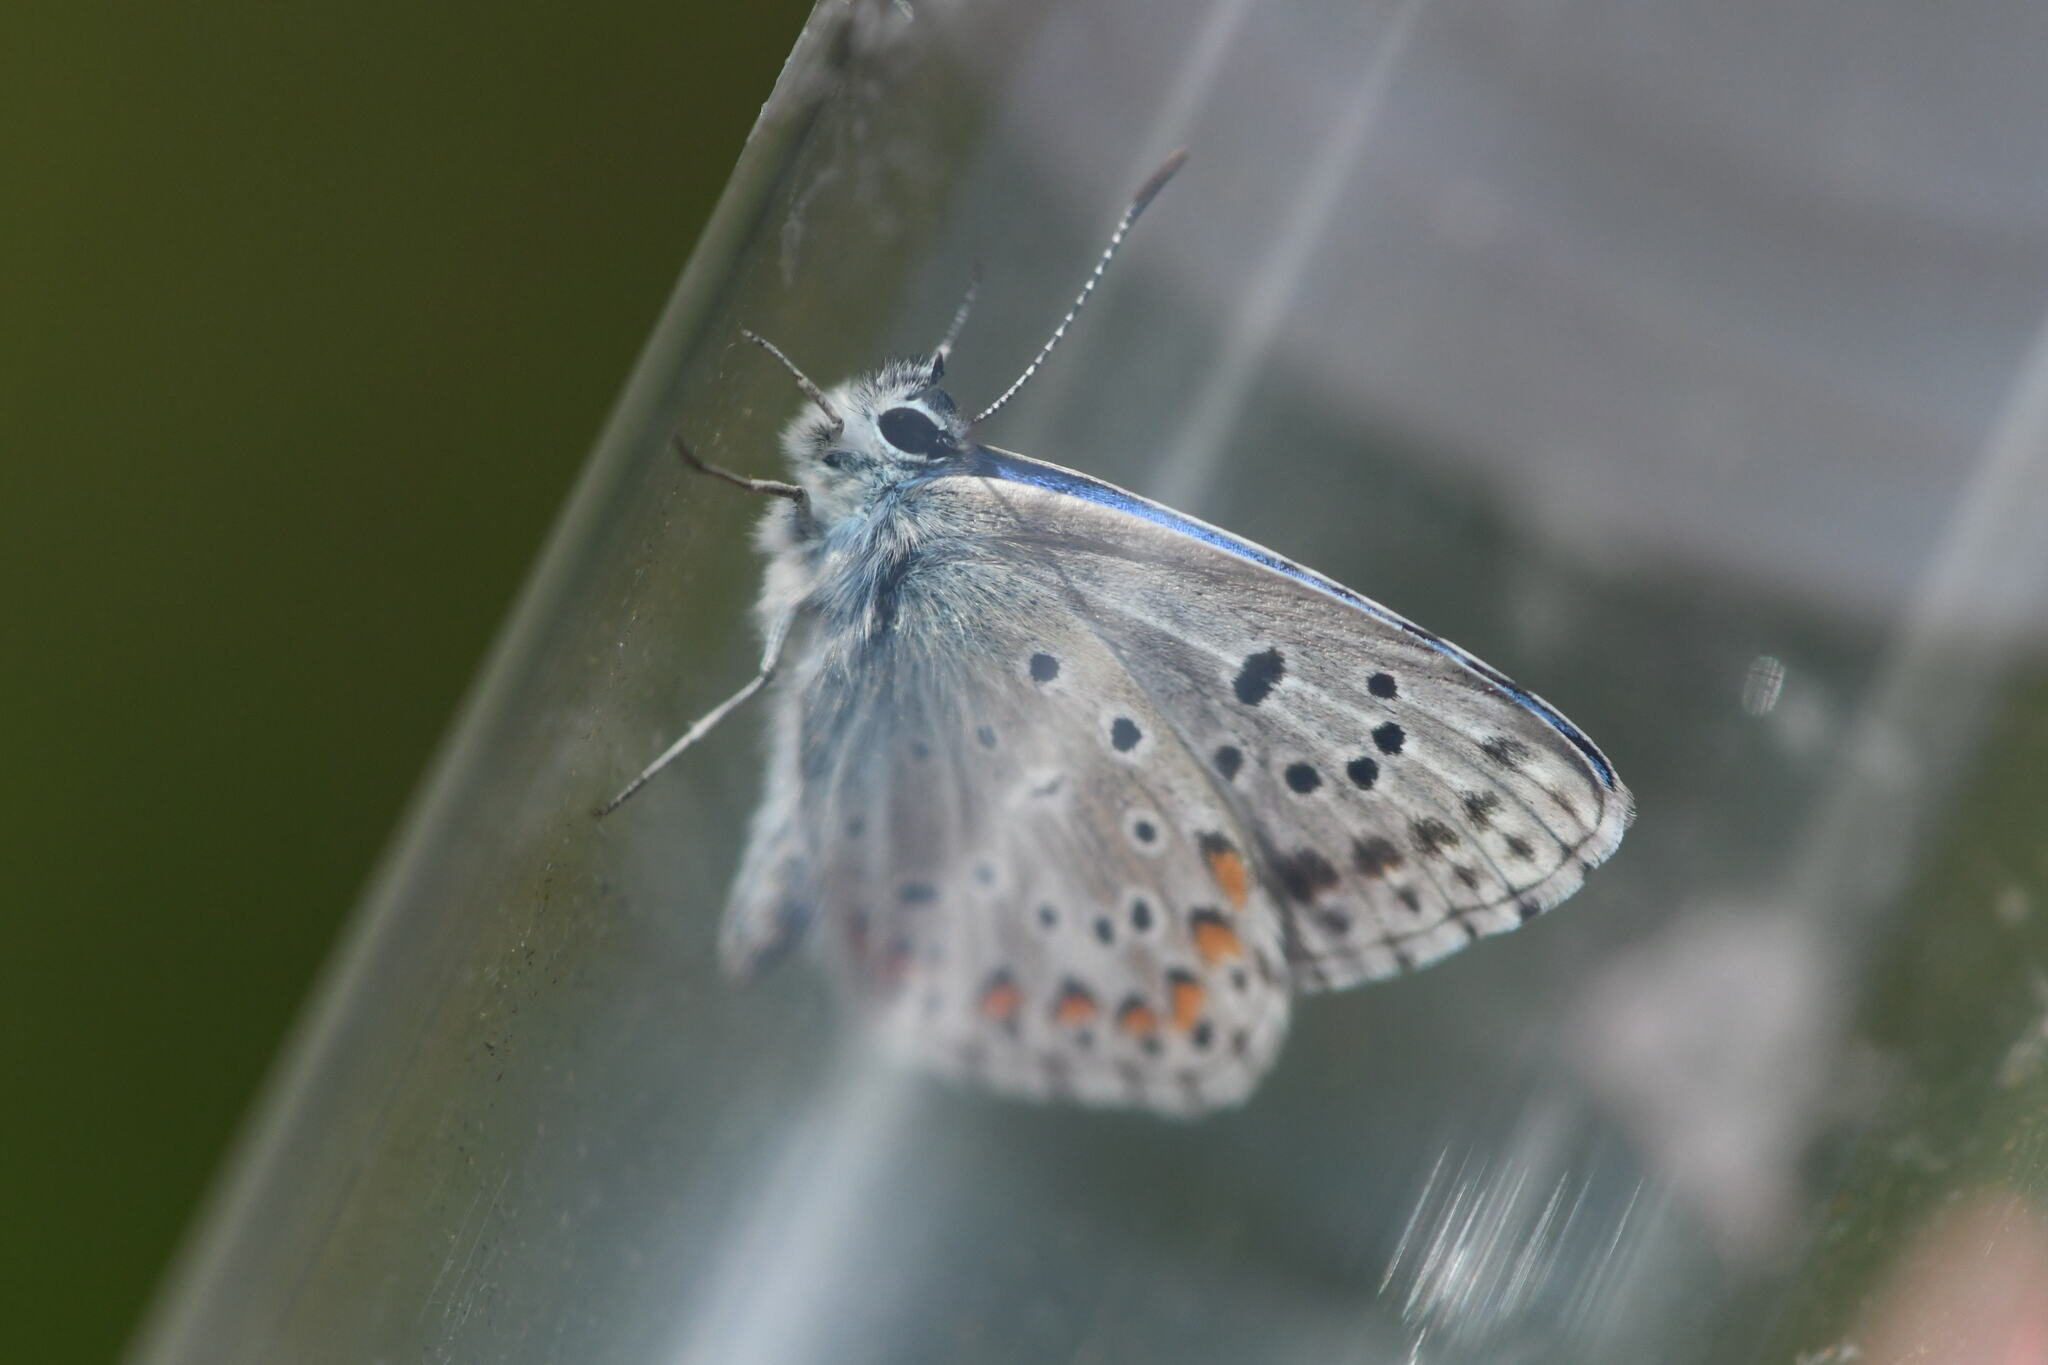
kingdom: Animalia
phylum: Arthropoda
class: Insecta
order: Lepidoptera
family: Lycaenidae
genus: Lysandra
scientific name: Lysandra bellargus
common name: Adonis blue
